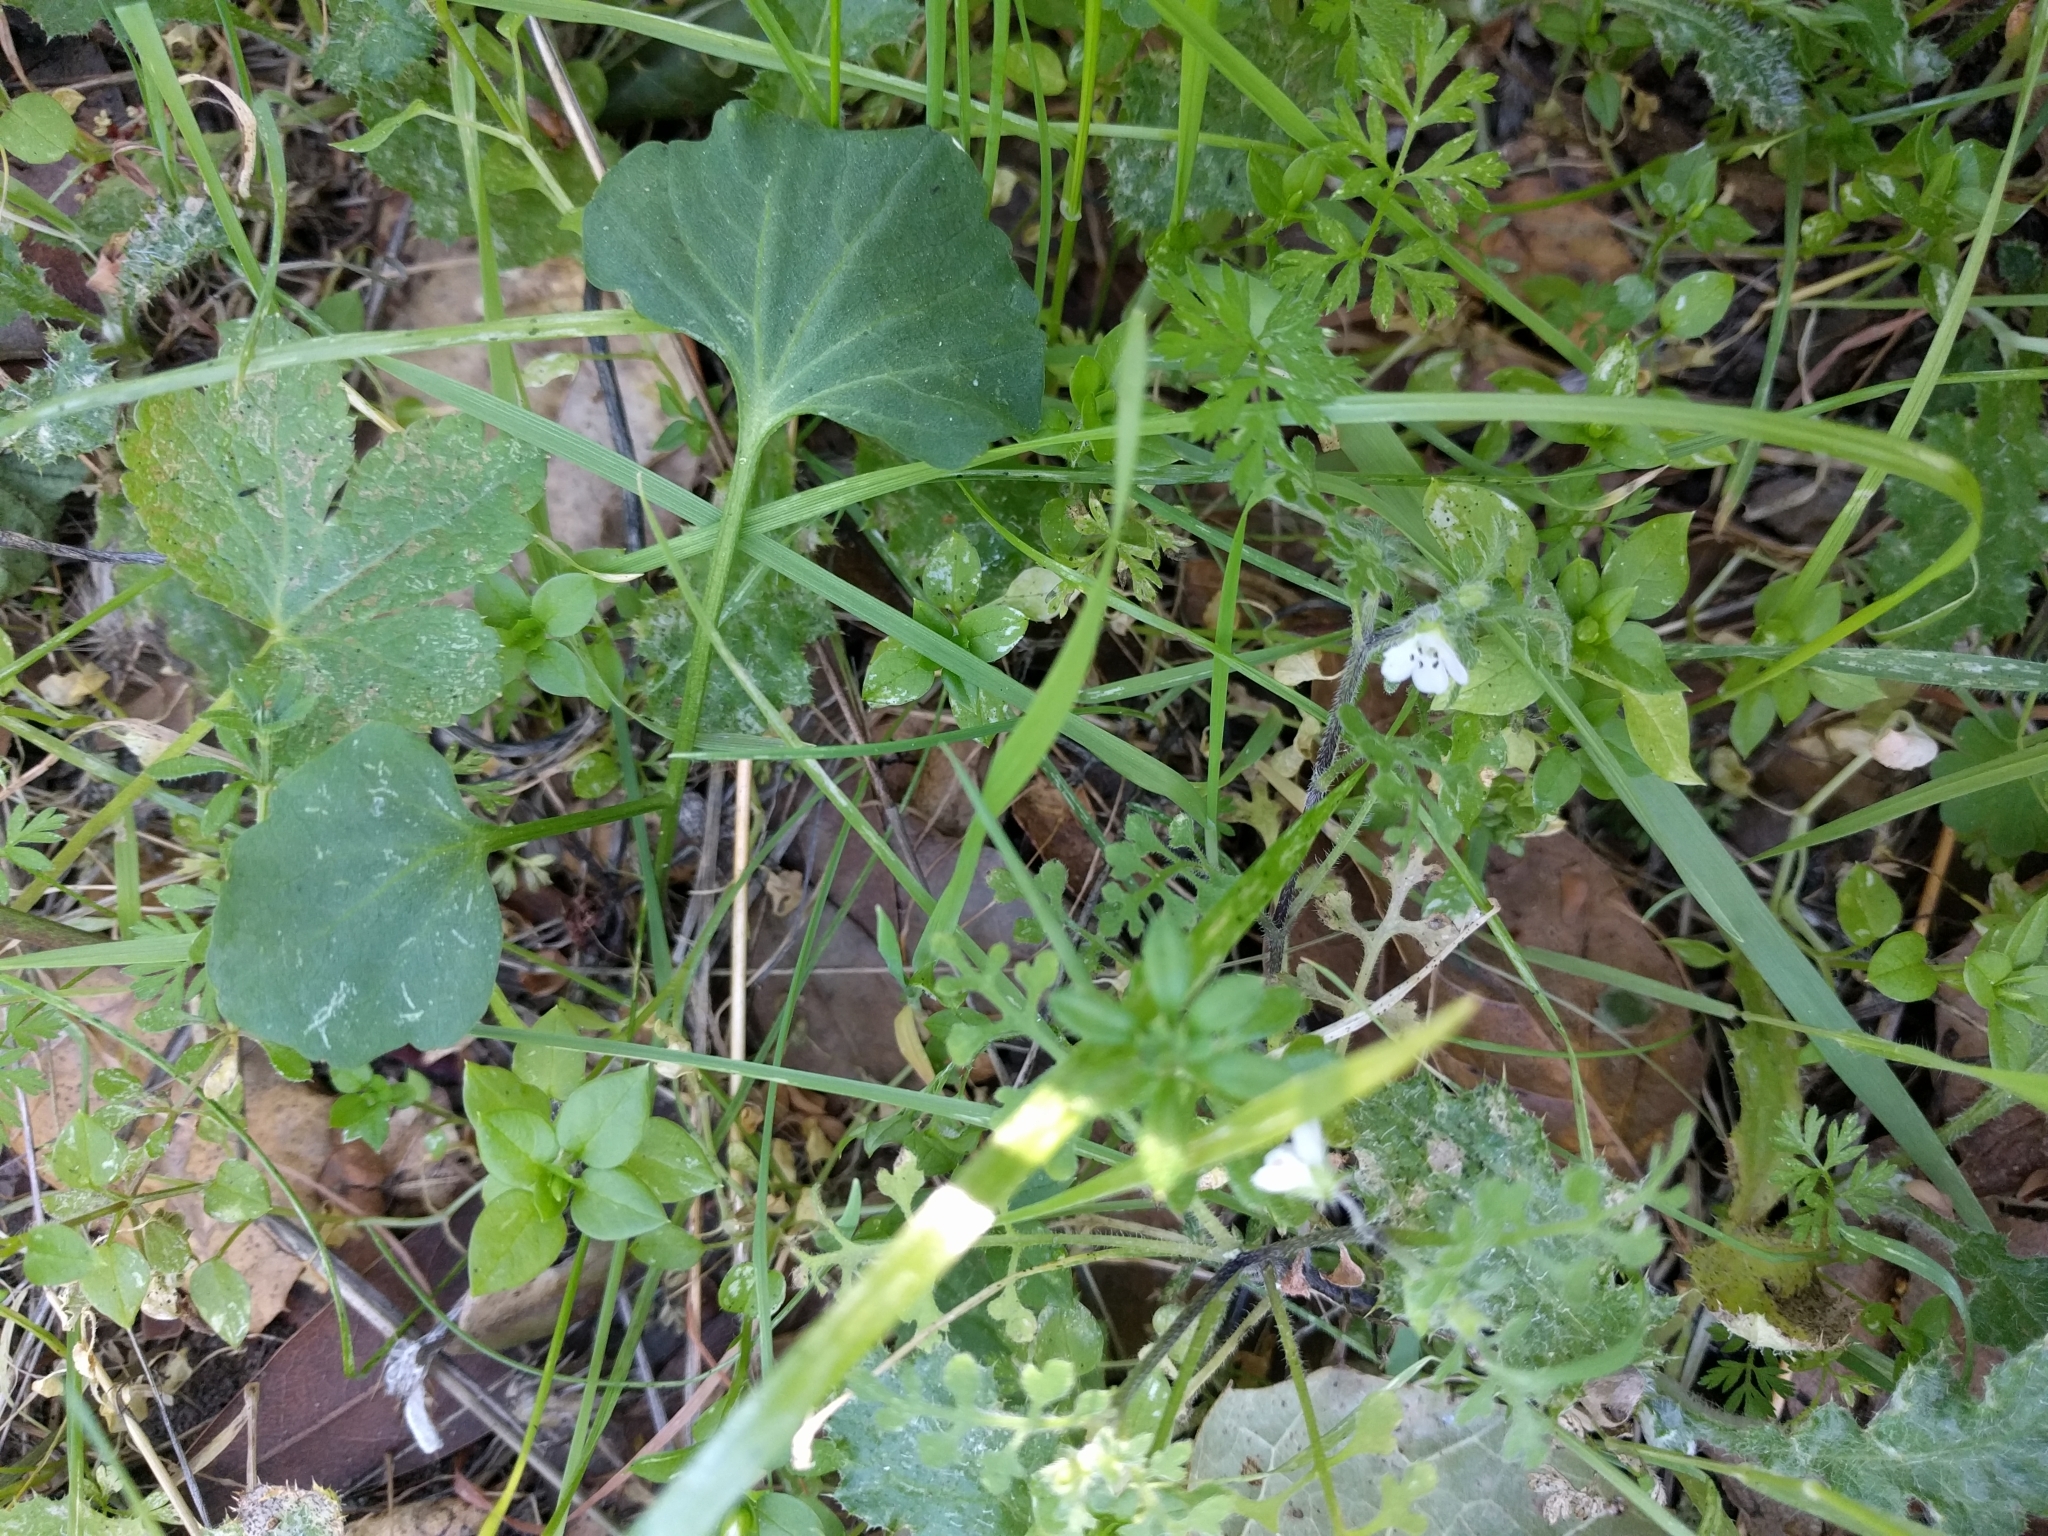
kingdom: Plantae
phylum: Tracheophyta
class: Magnoliopsida
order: Boraginales
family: Hydrophyllaceae
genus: Nemophila
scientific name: Nemophila parviflora
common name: Small-flowered baby-blue-eyes
